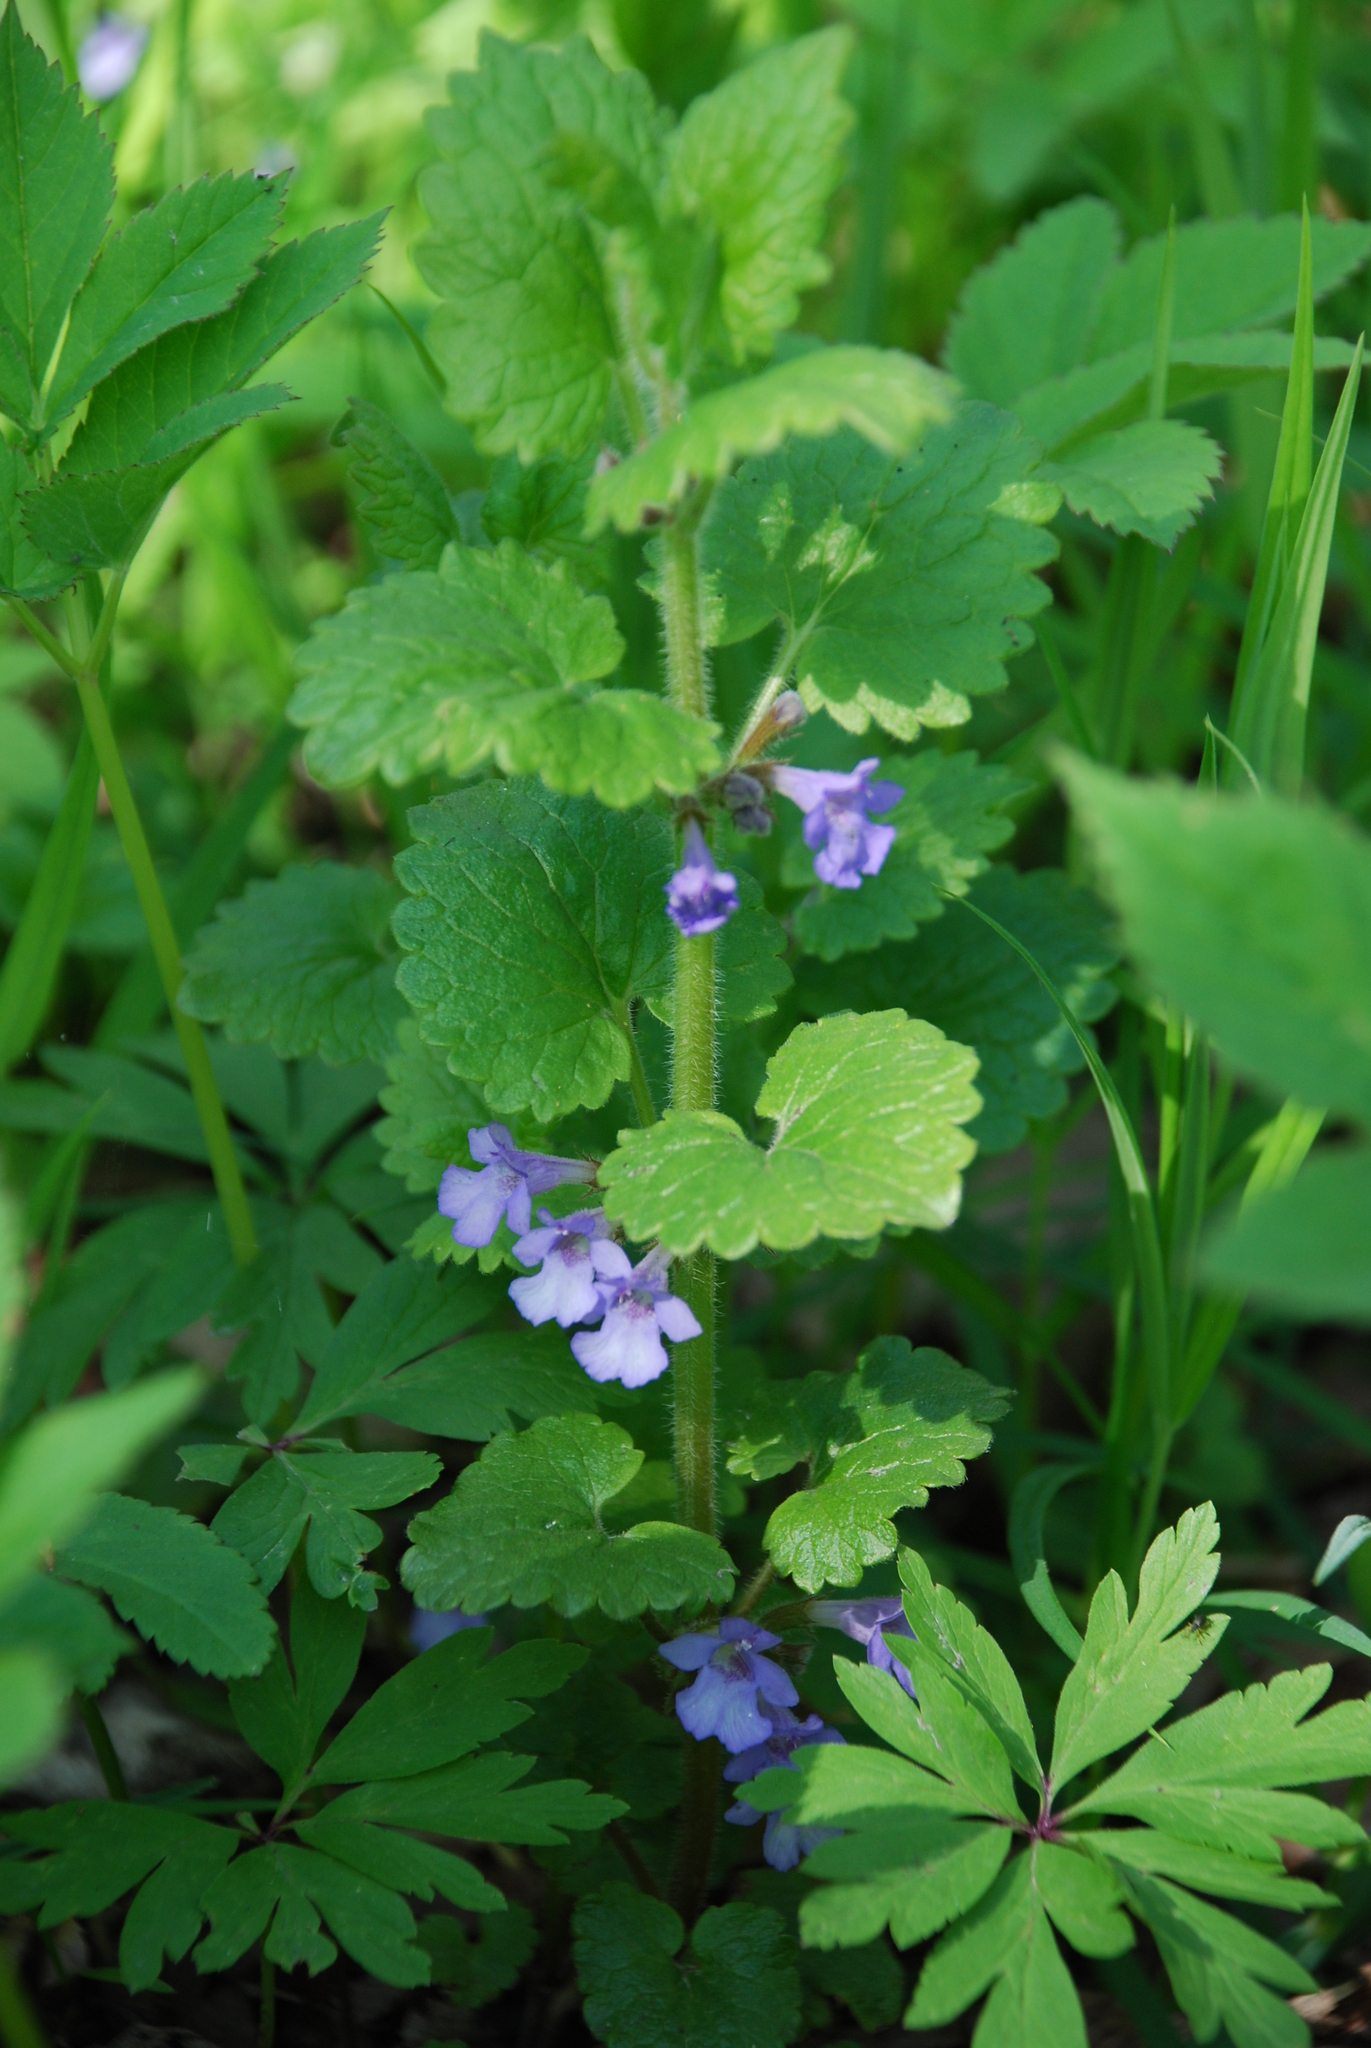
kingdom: Plantae
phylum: Tracheophyta
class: Magnoliopsida
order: Lamiales
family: Lamiaceae
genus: Glechoma
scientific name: Glechoma hederacea
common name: Ground ivy
